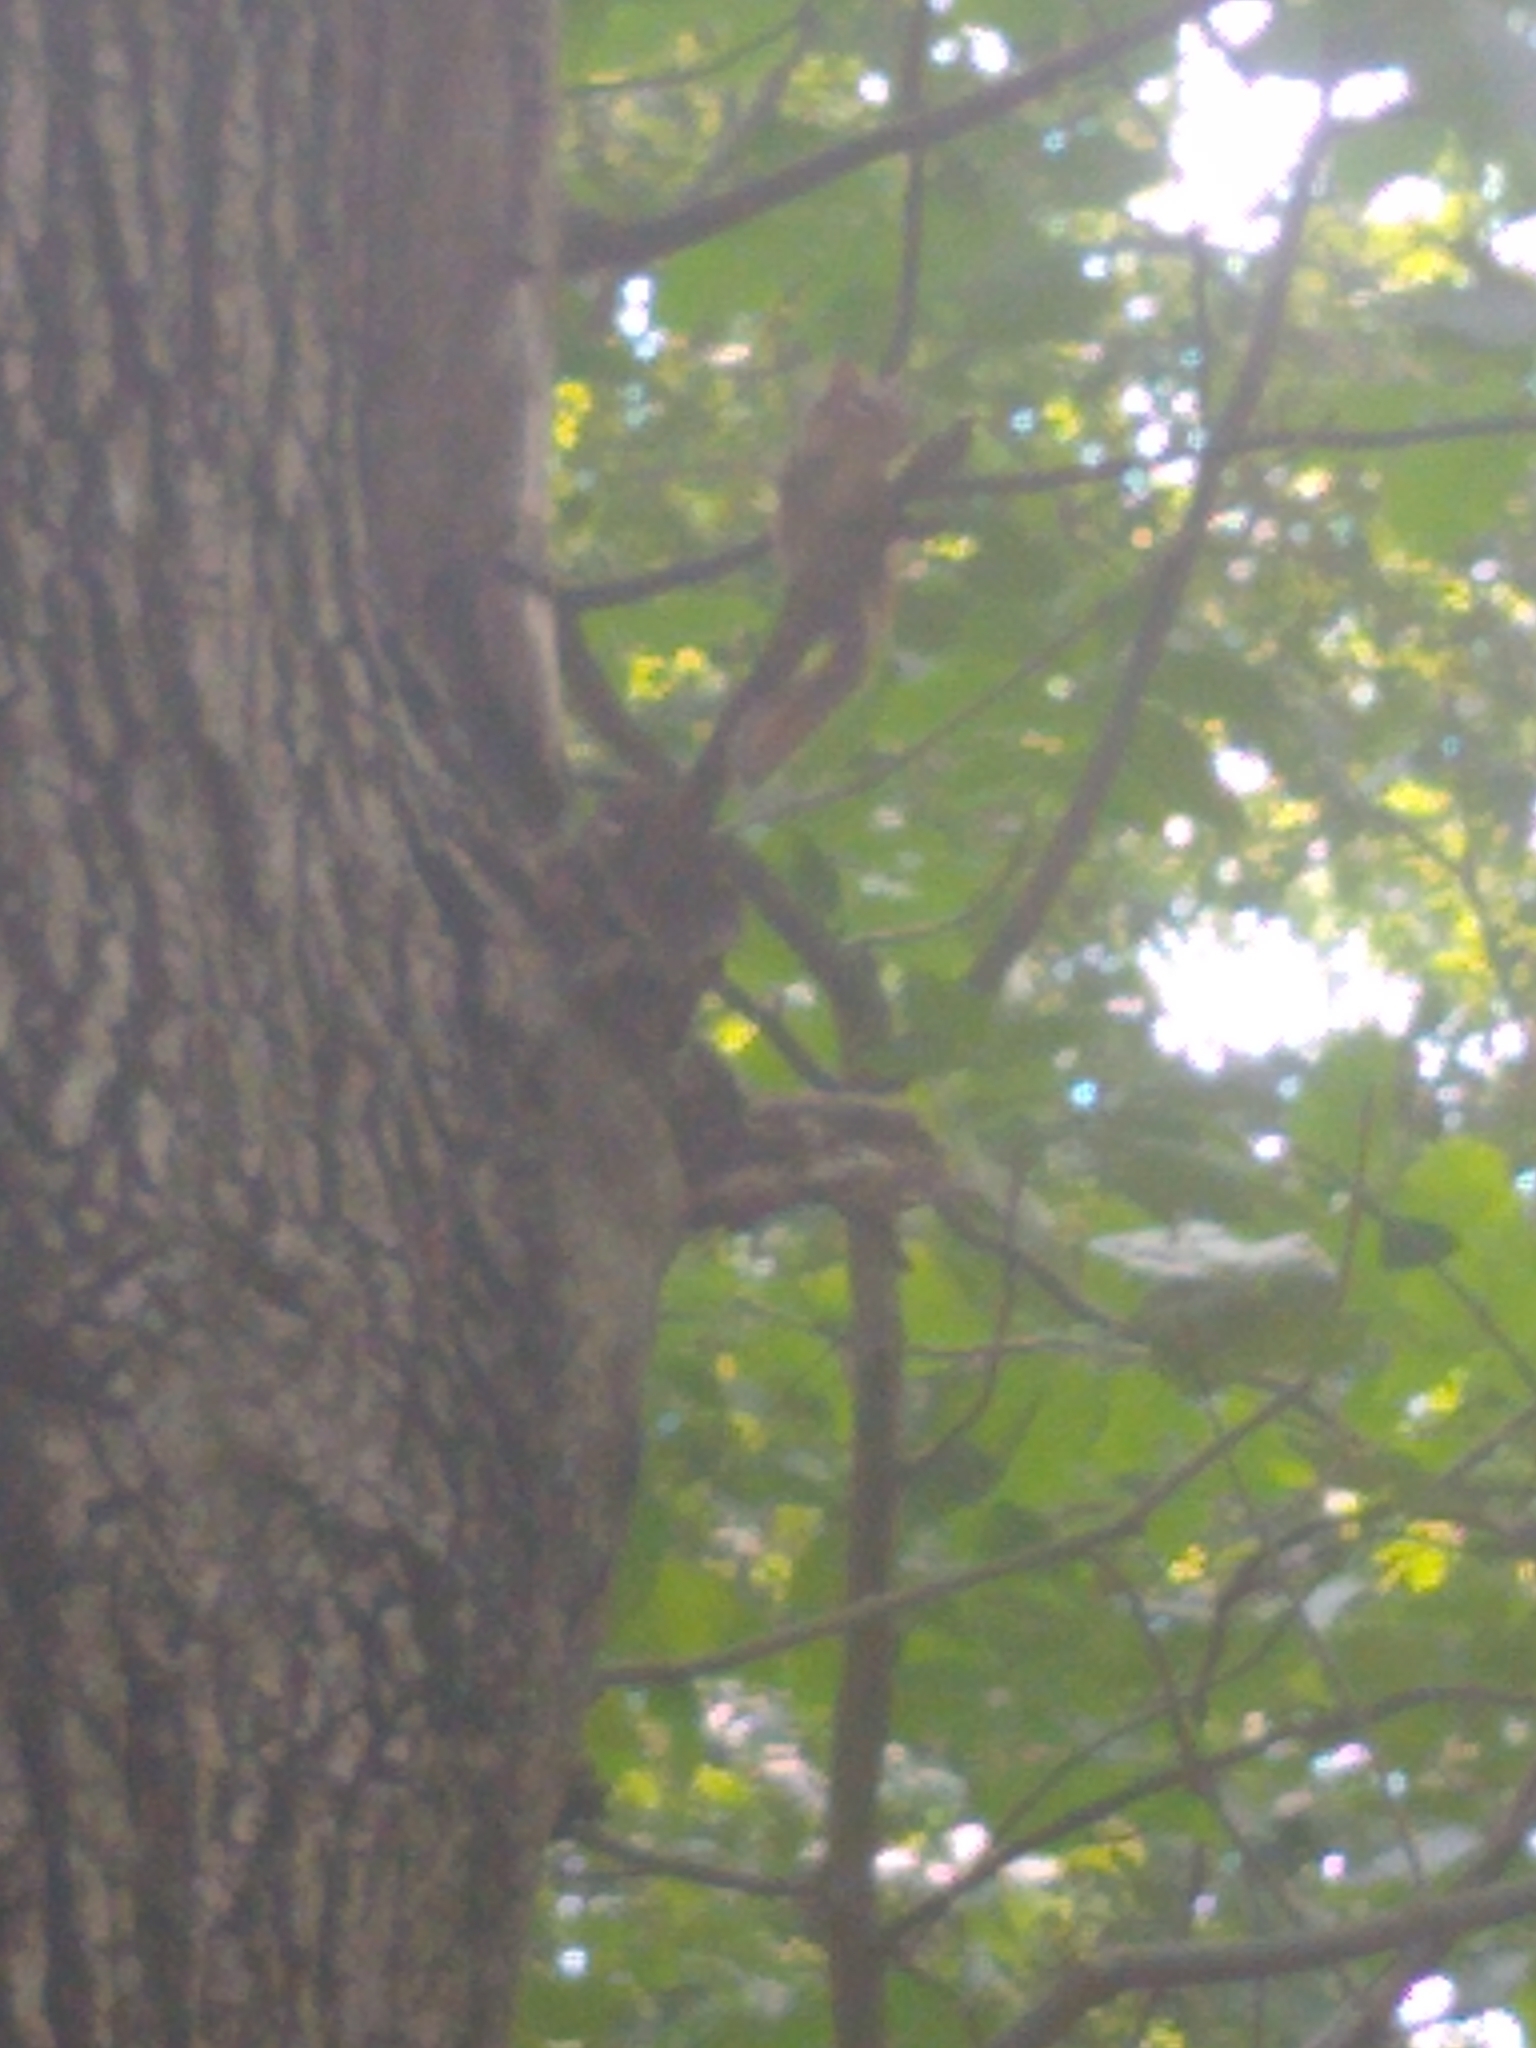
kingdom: Animalia
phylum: Chordata
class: Mammalia
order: Rodentia
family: Sciuridae
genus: Tamias
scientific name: Tamias striatus
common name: Eastern chipmunk
